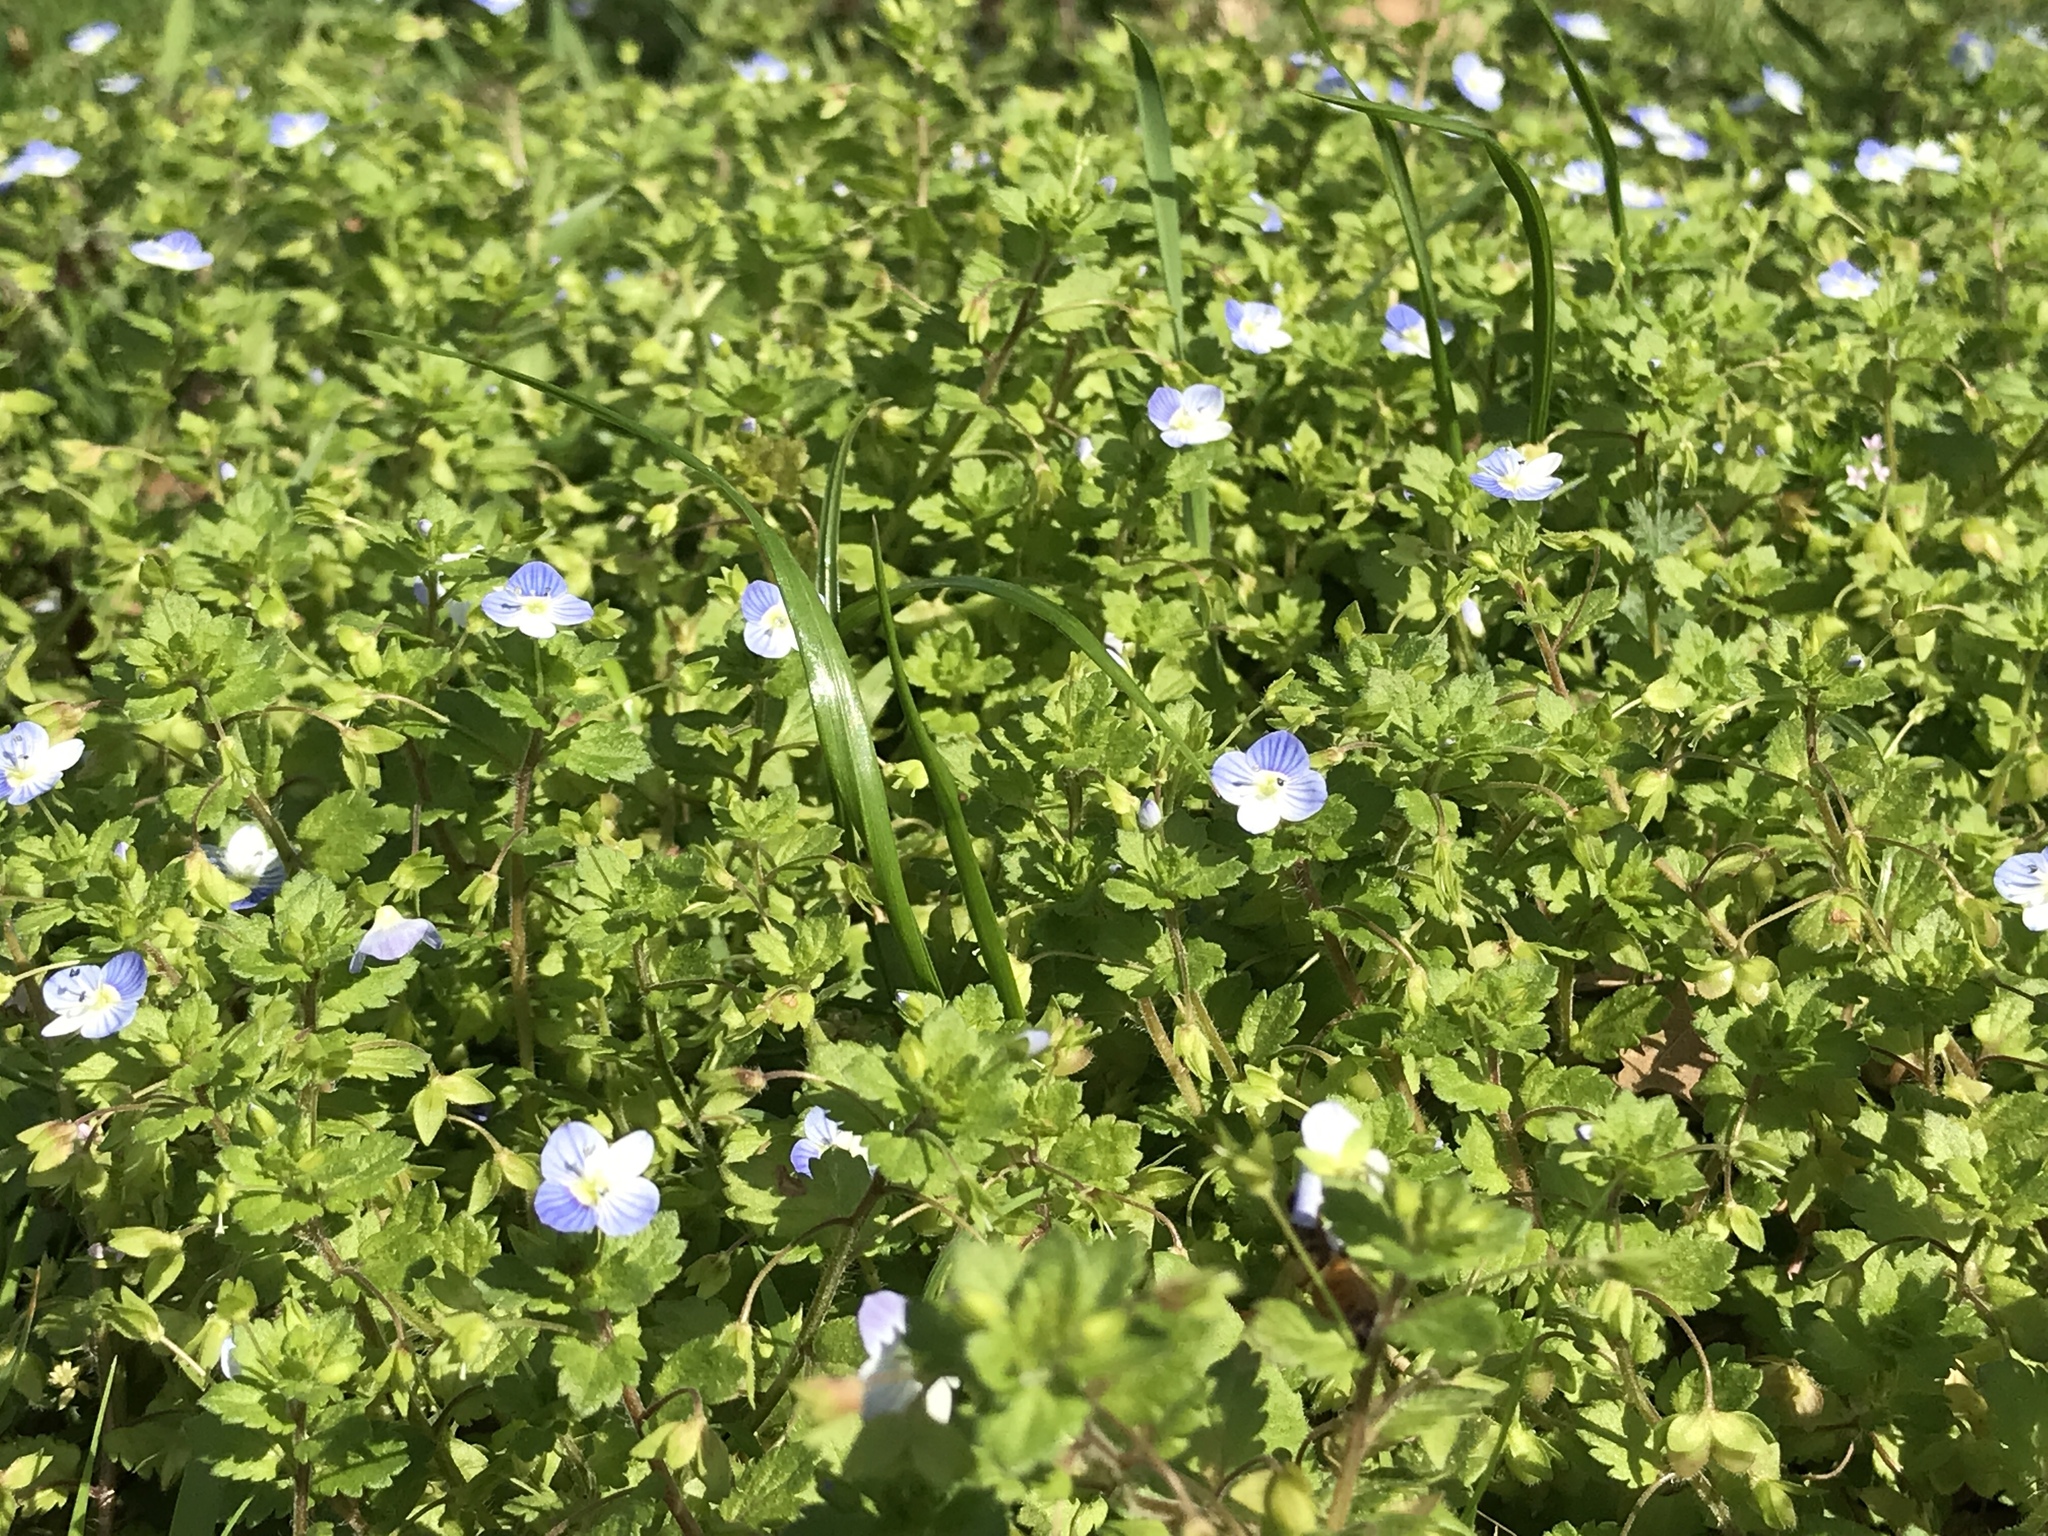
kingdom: Plantae
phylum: Tracheophyta
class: Magnoliopsida
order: Lamiales
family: Plantaginaceae
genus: Veronica
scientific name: Veronica persica
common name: Common field-speedwell
